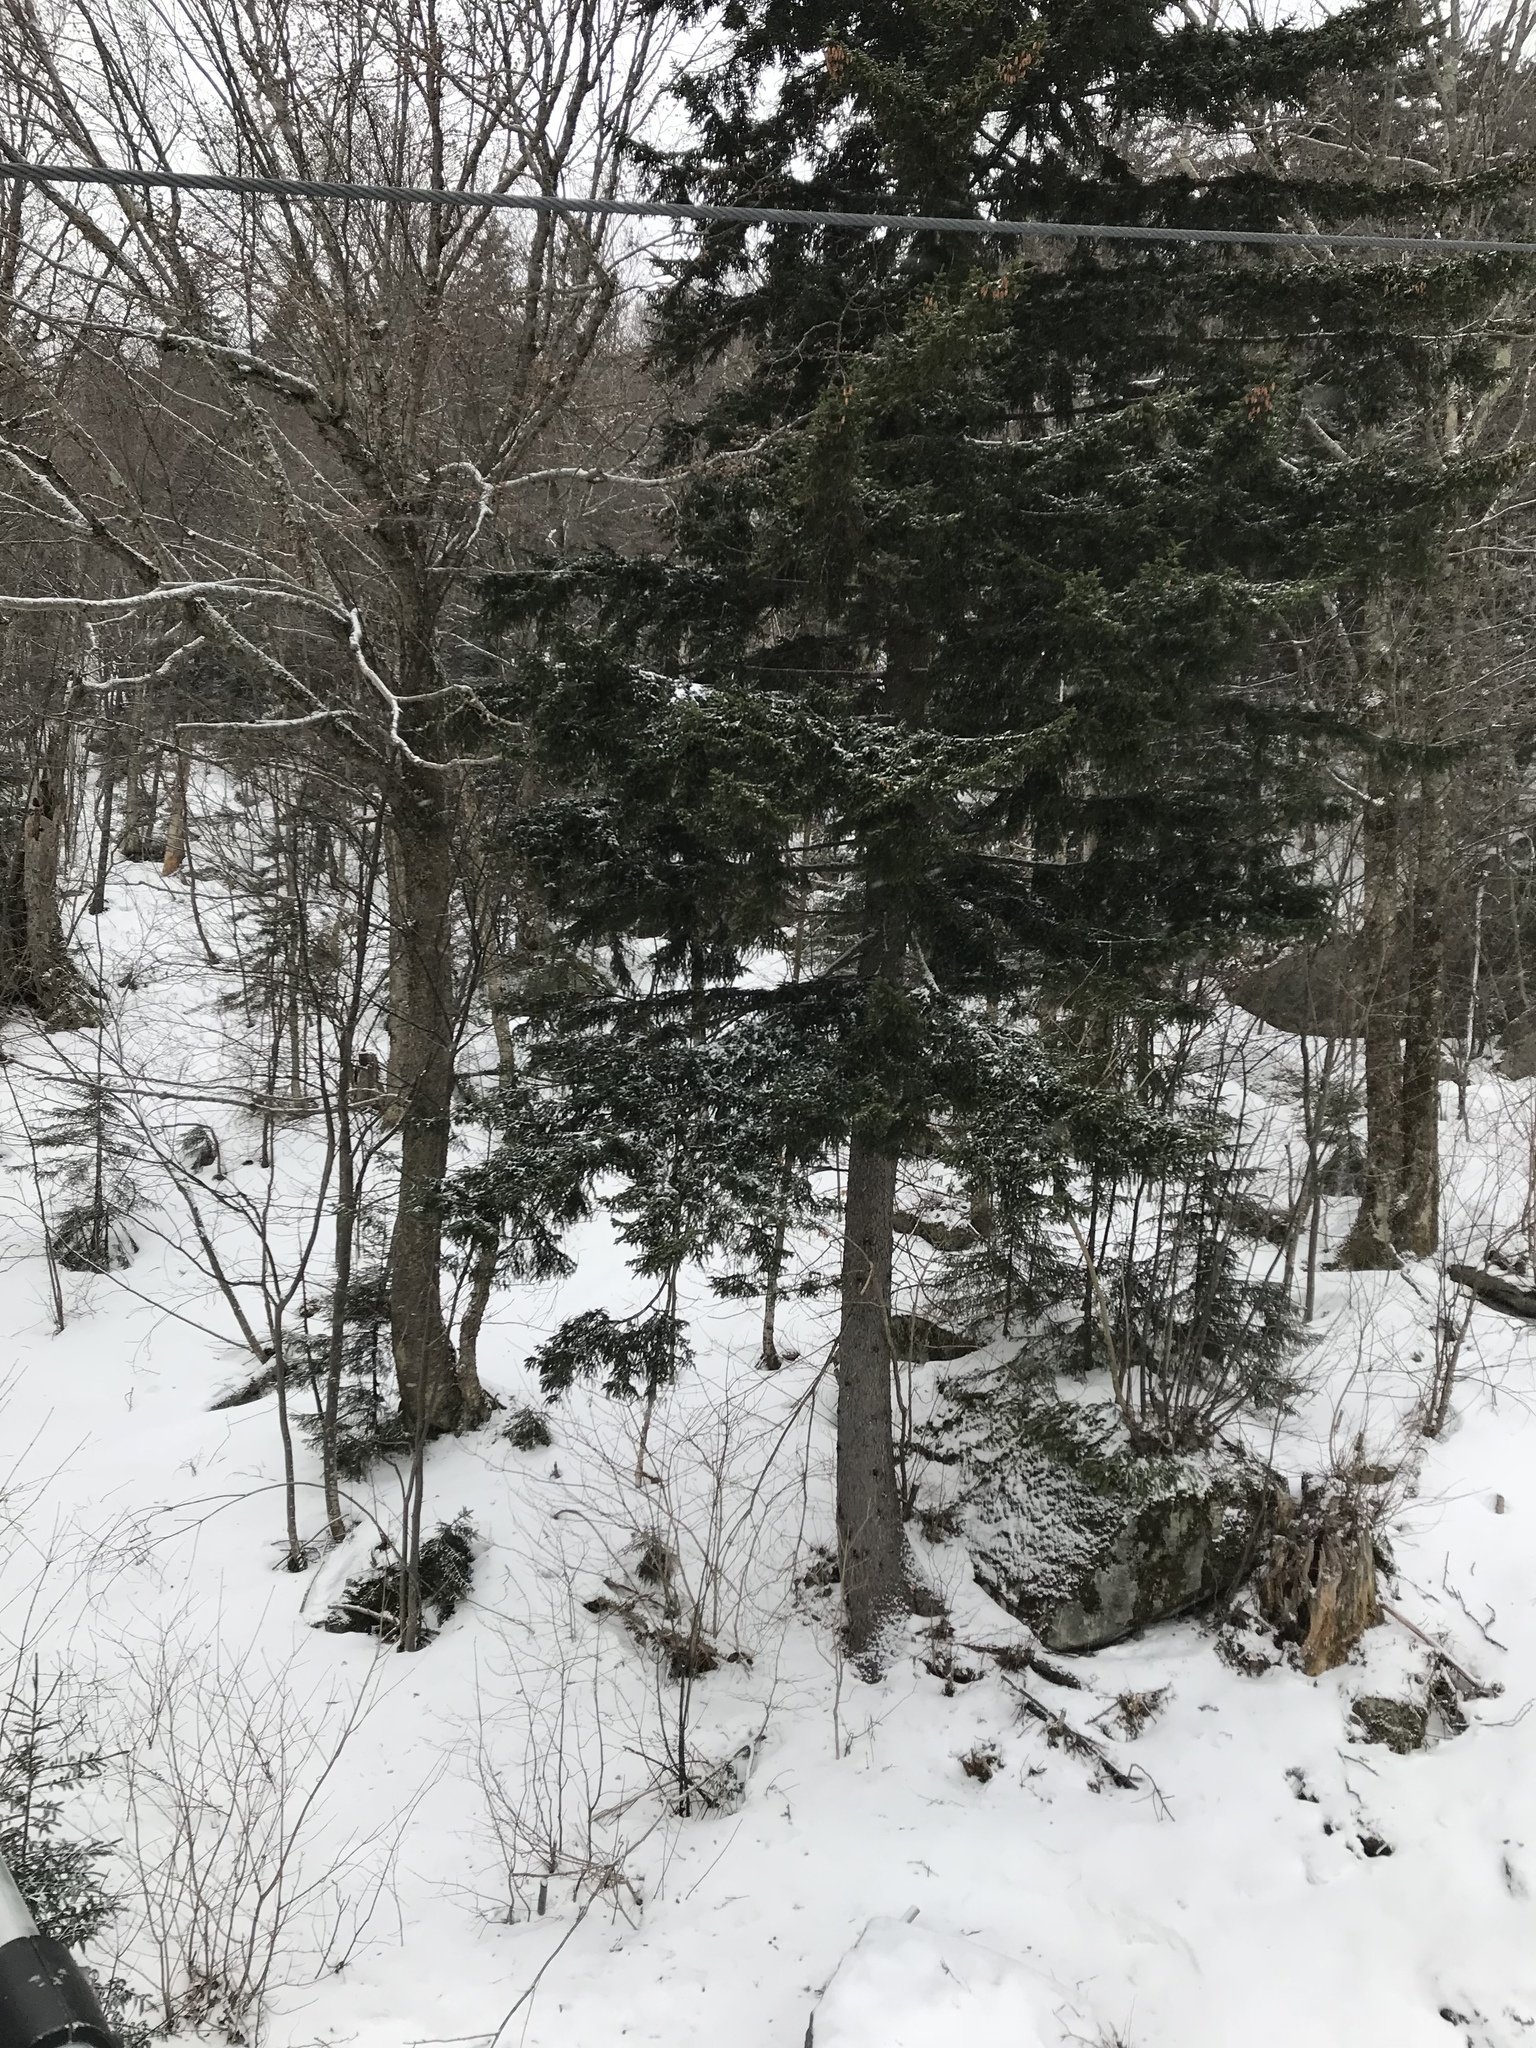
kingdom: Plantae
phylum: Tracheophyta
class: Pinopsida
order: Pinales
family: Pinaceae
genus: Picea
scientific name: Picea rubens
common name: Red spruce
